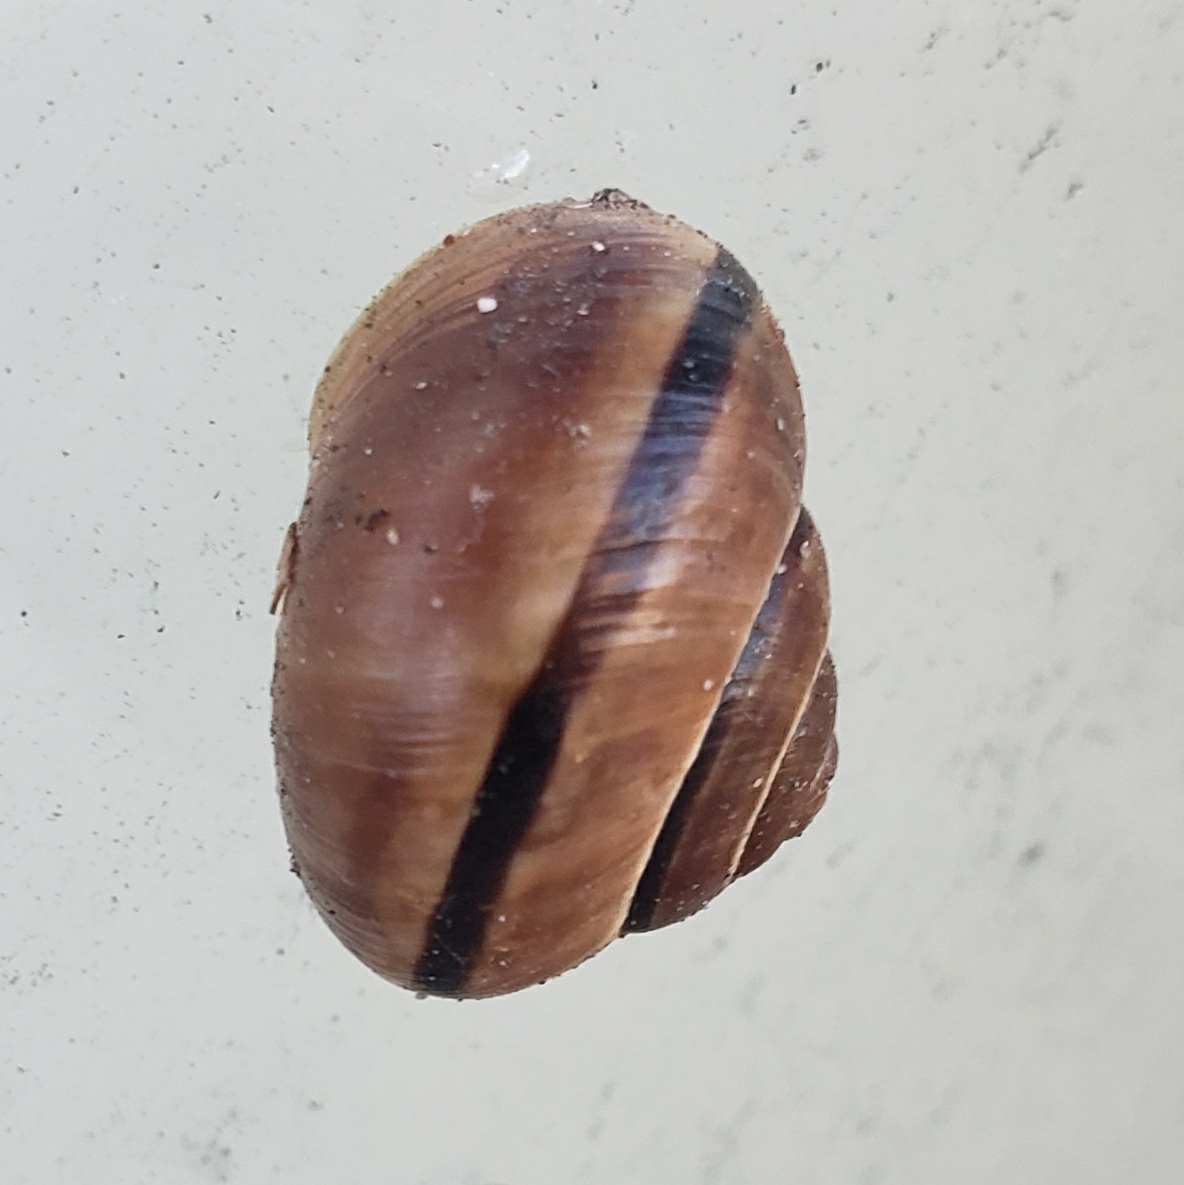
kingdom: Animalia
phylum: Mollusca
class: Gastropoda
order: Stylommatophora
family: Helicidae
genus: Cepaea
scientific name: Cepaea nemoralis
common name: Grovesnail
